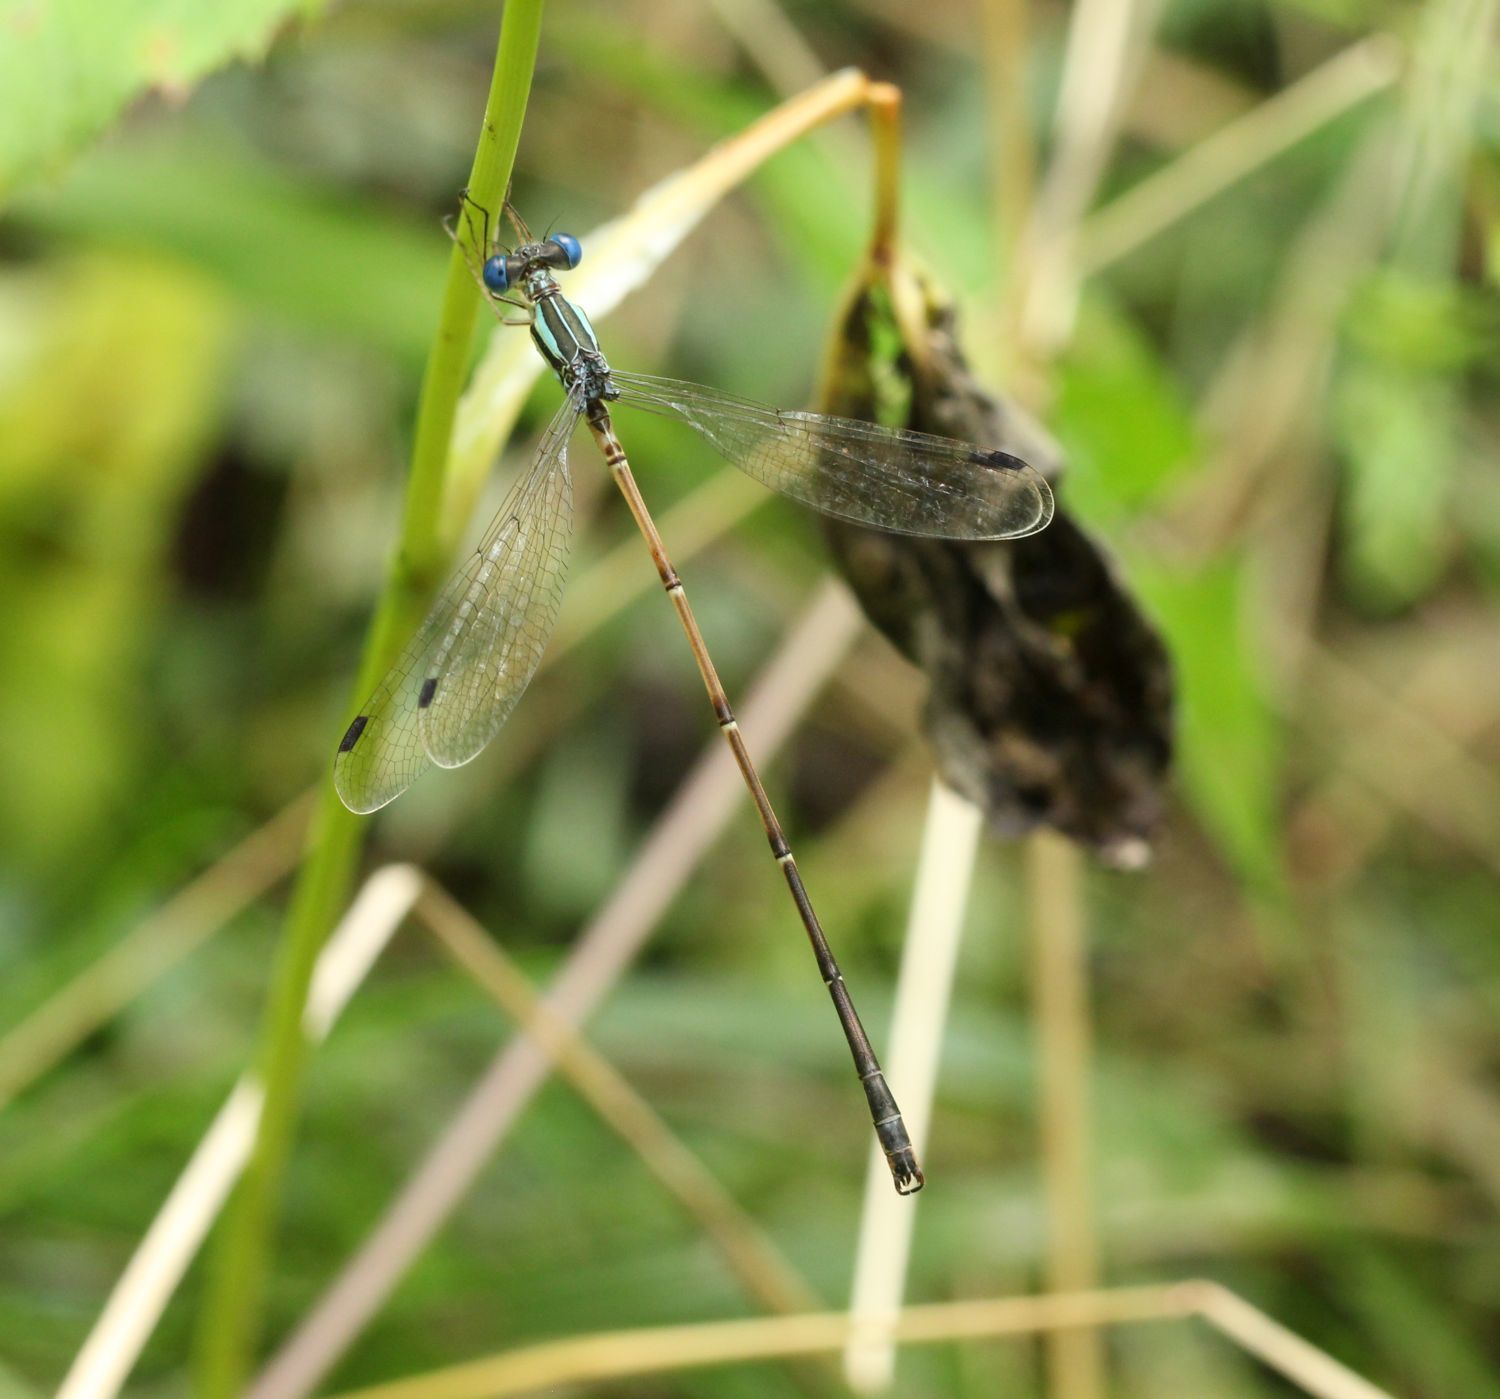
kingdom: Animalia
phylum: Arthropoda
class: Insecta
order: Odonata
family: Lestidae
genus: Lestes
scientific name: Lestes rectangularis
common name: Slender spreadwing
